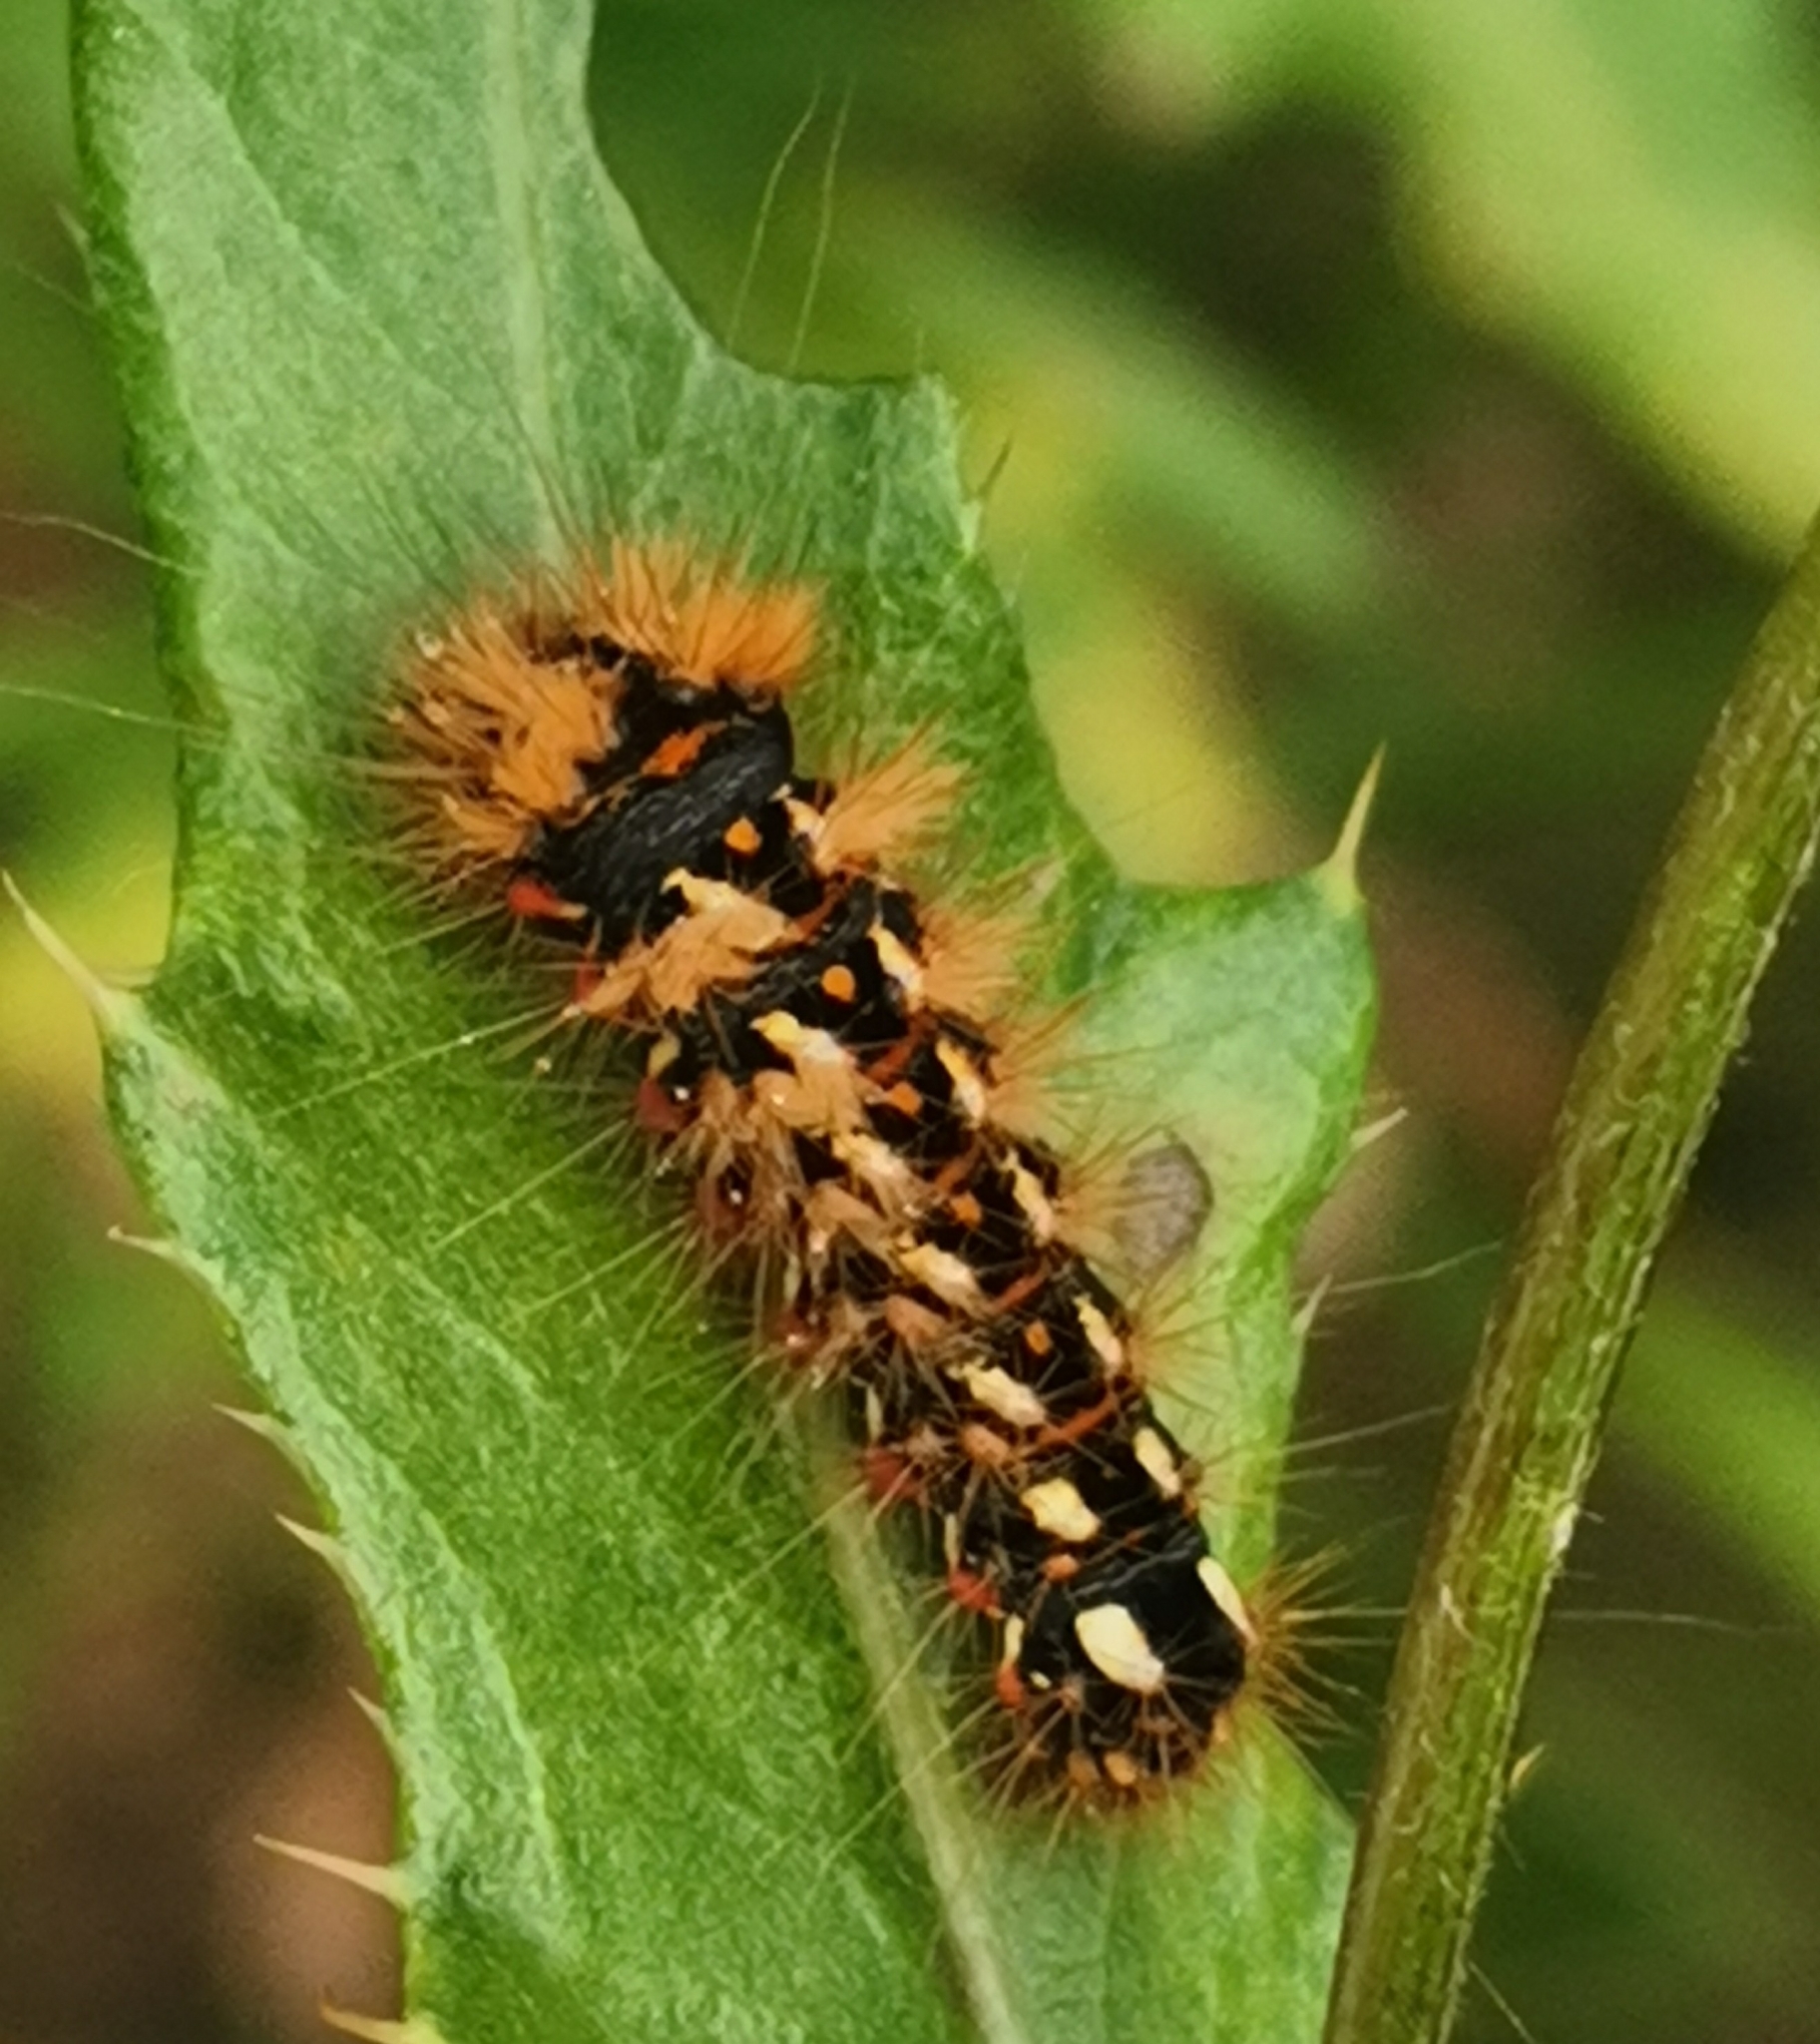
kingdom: Animalia
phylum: Arthropoda
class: Insecta
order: Lepidoptera
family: Noctuidae
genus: Acronicta
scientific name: Acronicta rumicis
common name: Knot grass
